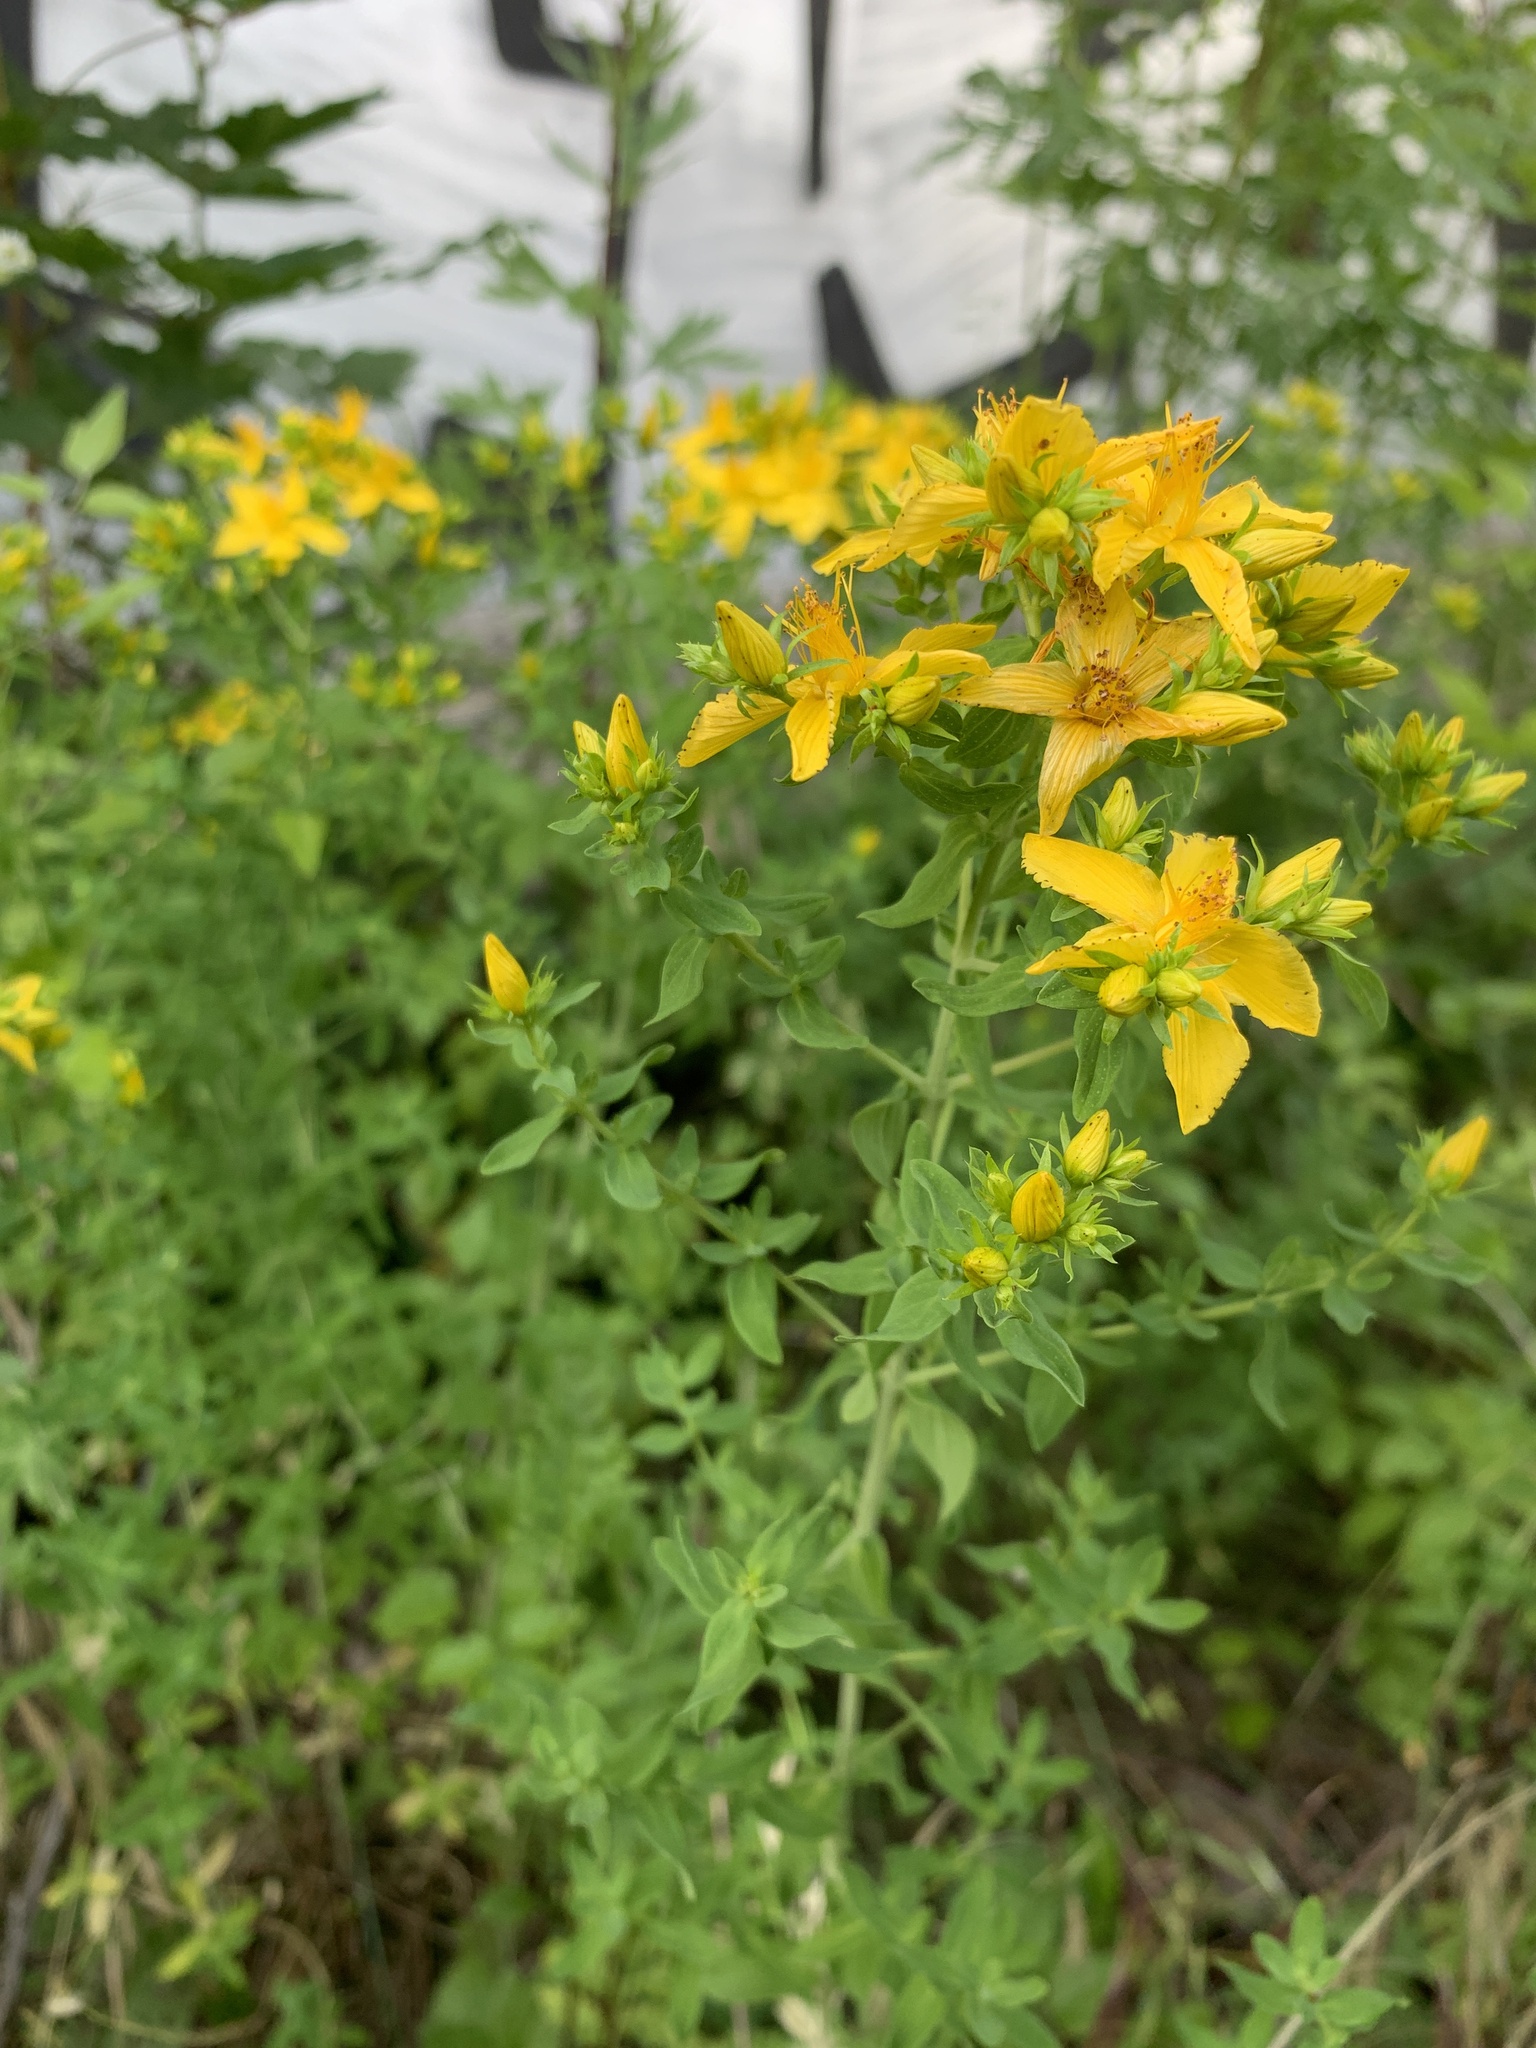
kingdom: Plantae
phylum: Tracheophyta
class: Magnoliopsida
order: Malpighiales
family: Hypericaceae
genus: Hypericum
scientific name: Hypericum perforatum
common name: Common st. johnswort
